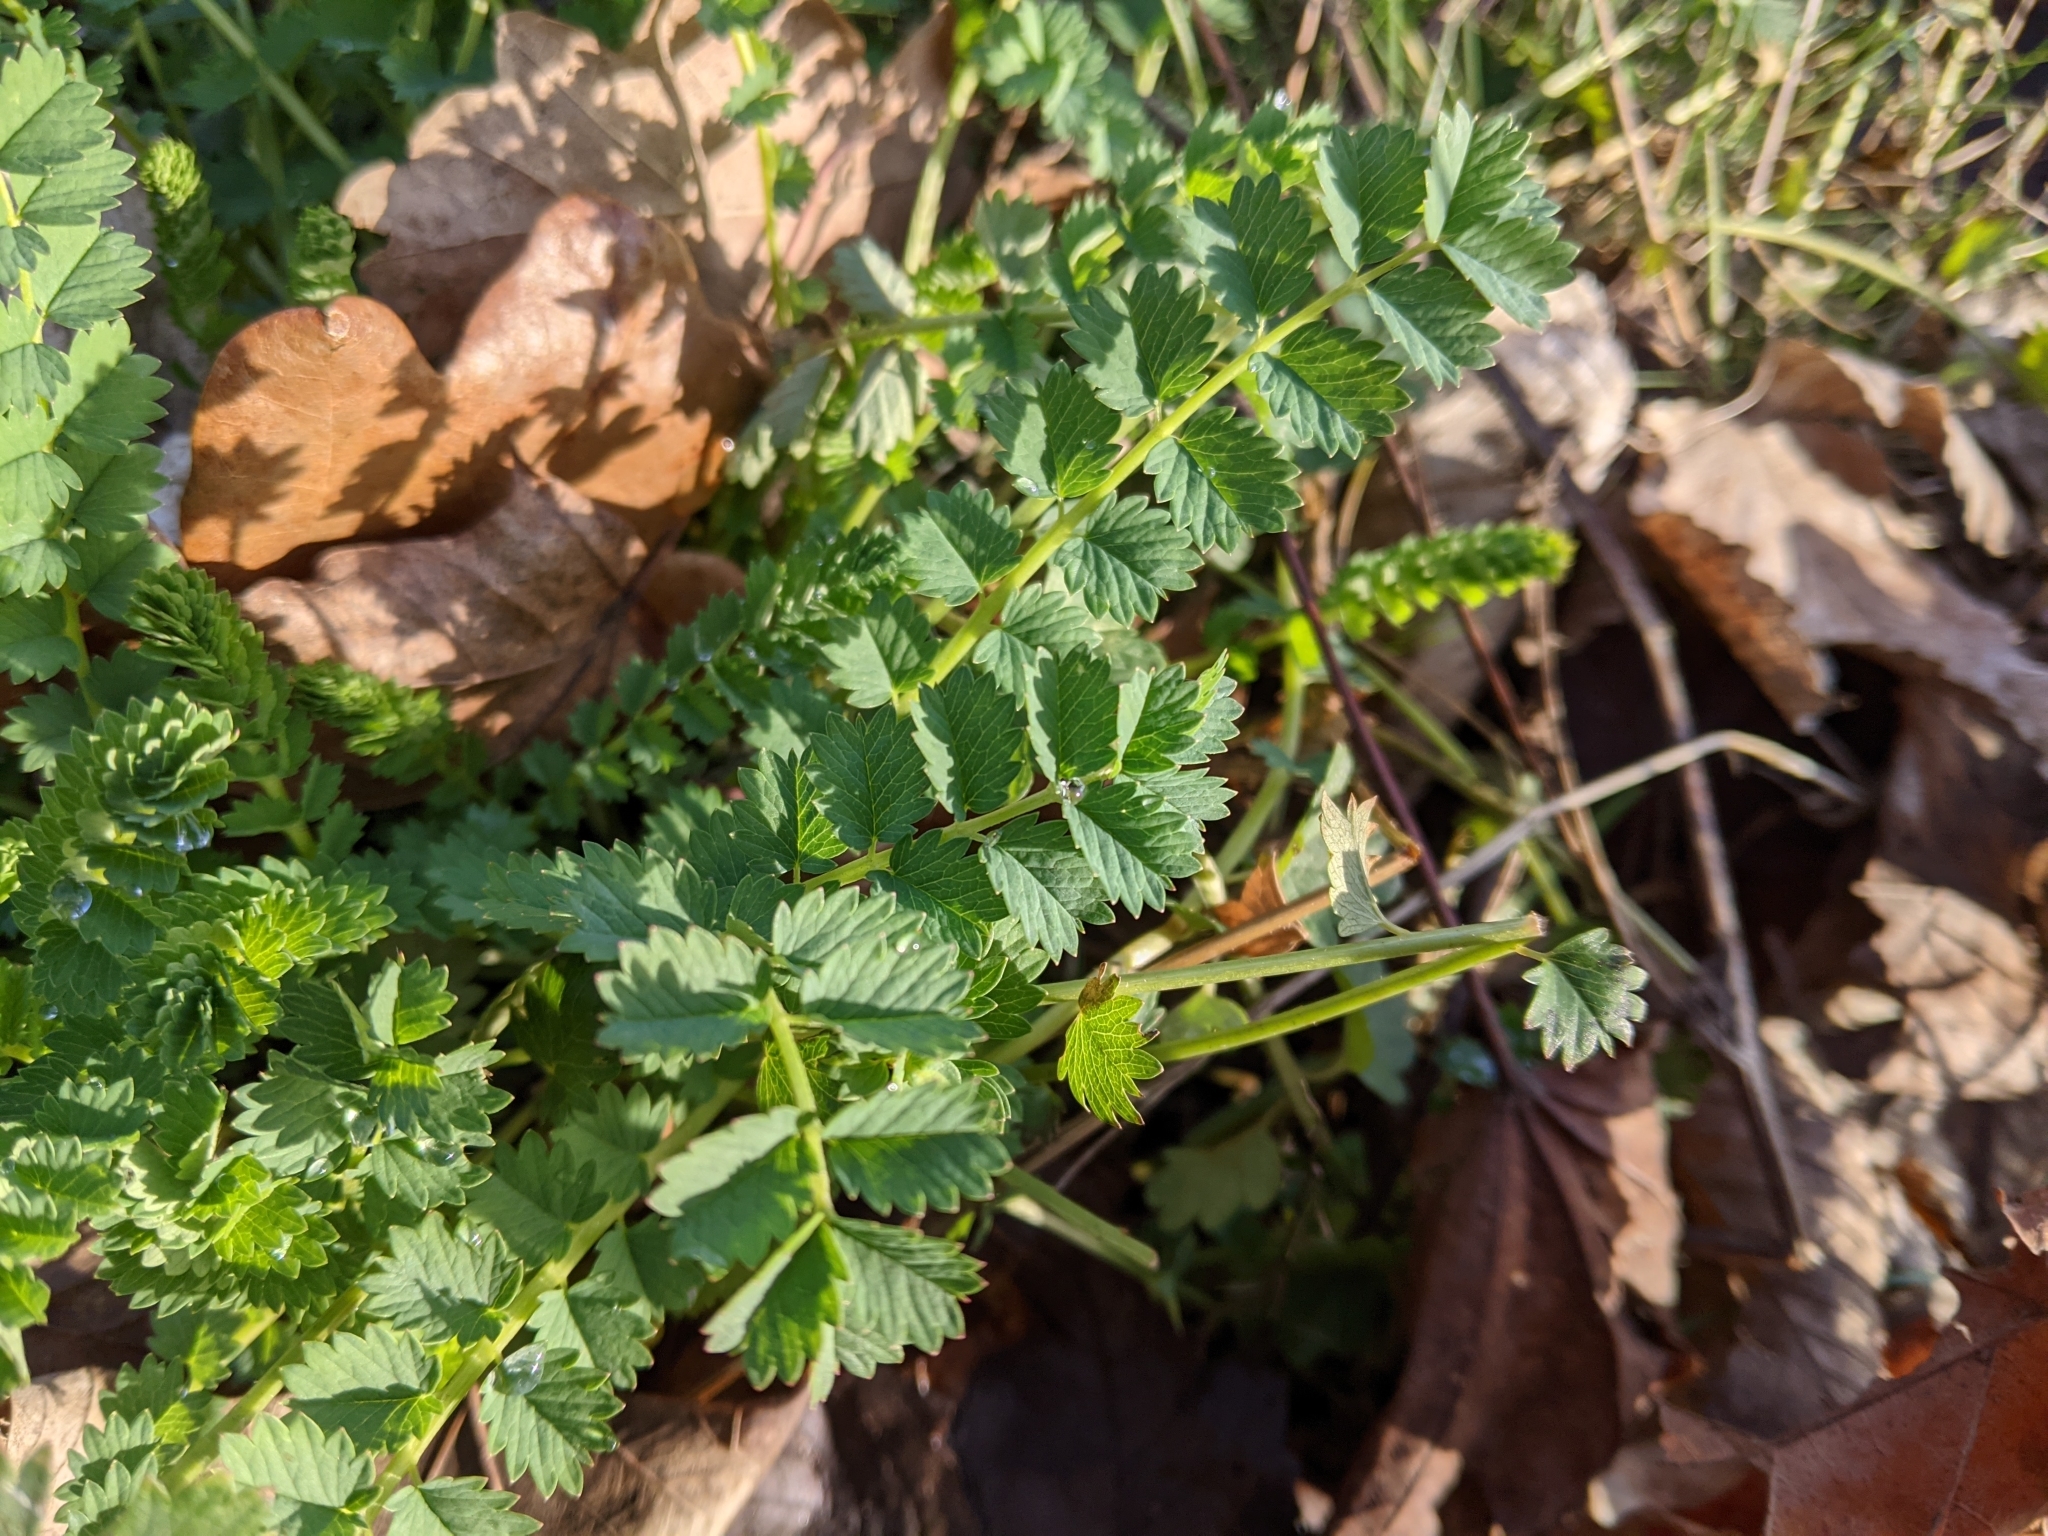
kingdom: Plantae
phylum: Tracheophyta
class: Magnoliopsida
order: Rosales
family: Rosaceae
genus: Poterium
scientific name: Poterium sanguisorba
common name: Salad burnet
